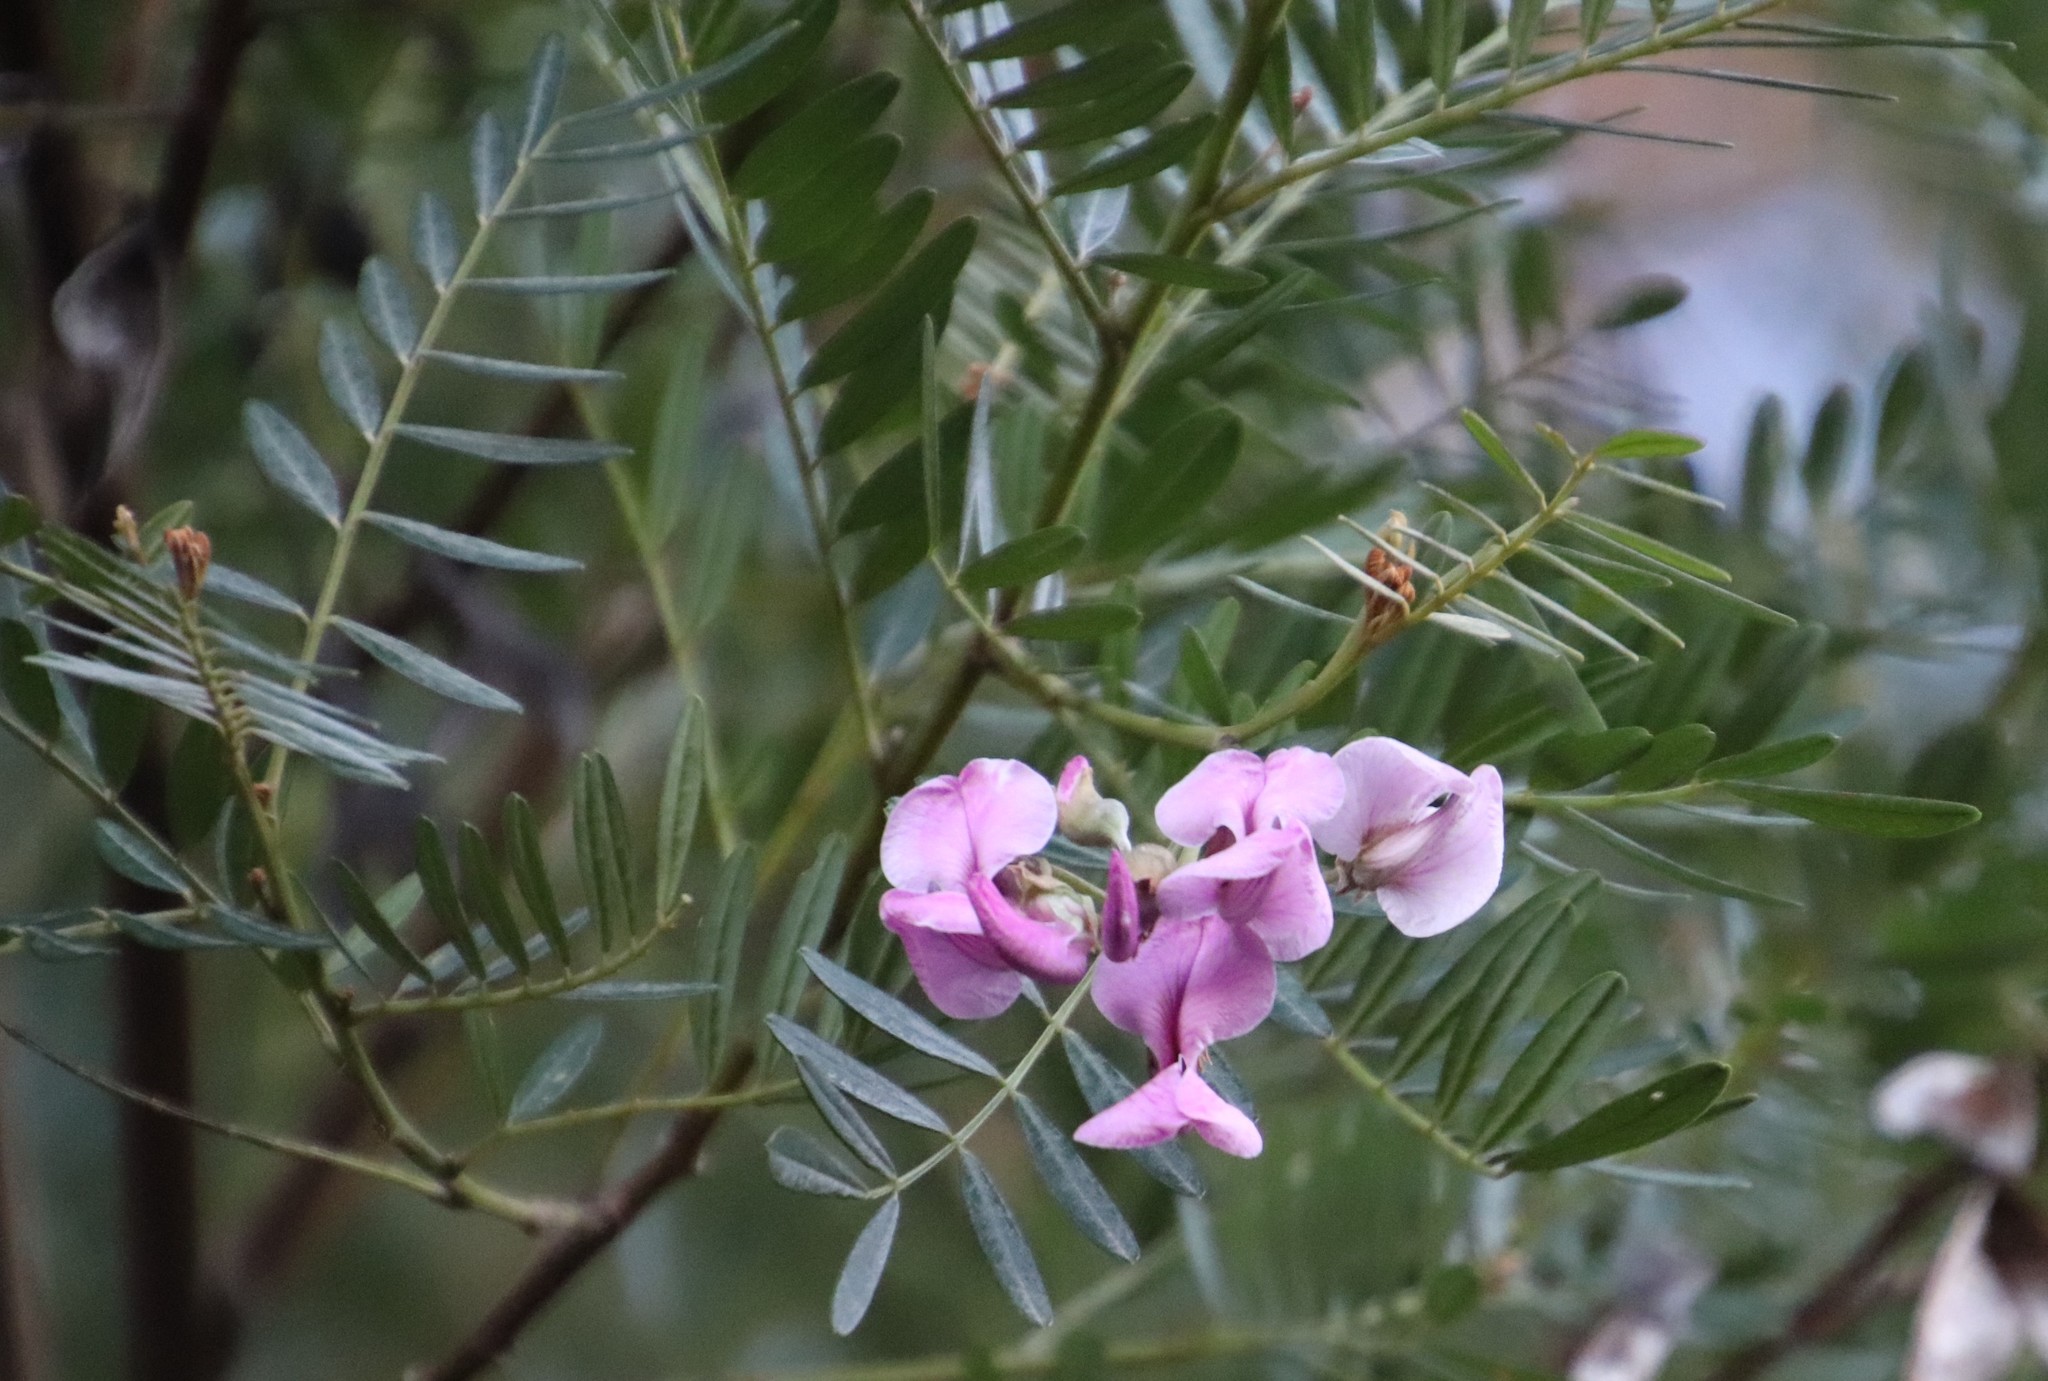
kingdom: Plantae
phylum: Tracheophyta
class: Magnoliopsida
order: Fabales
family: Fabaceae
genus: Virgilia
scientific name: Virgilia oroboides
